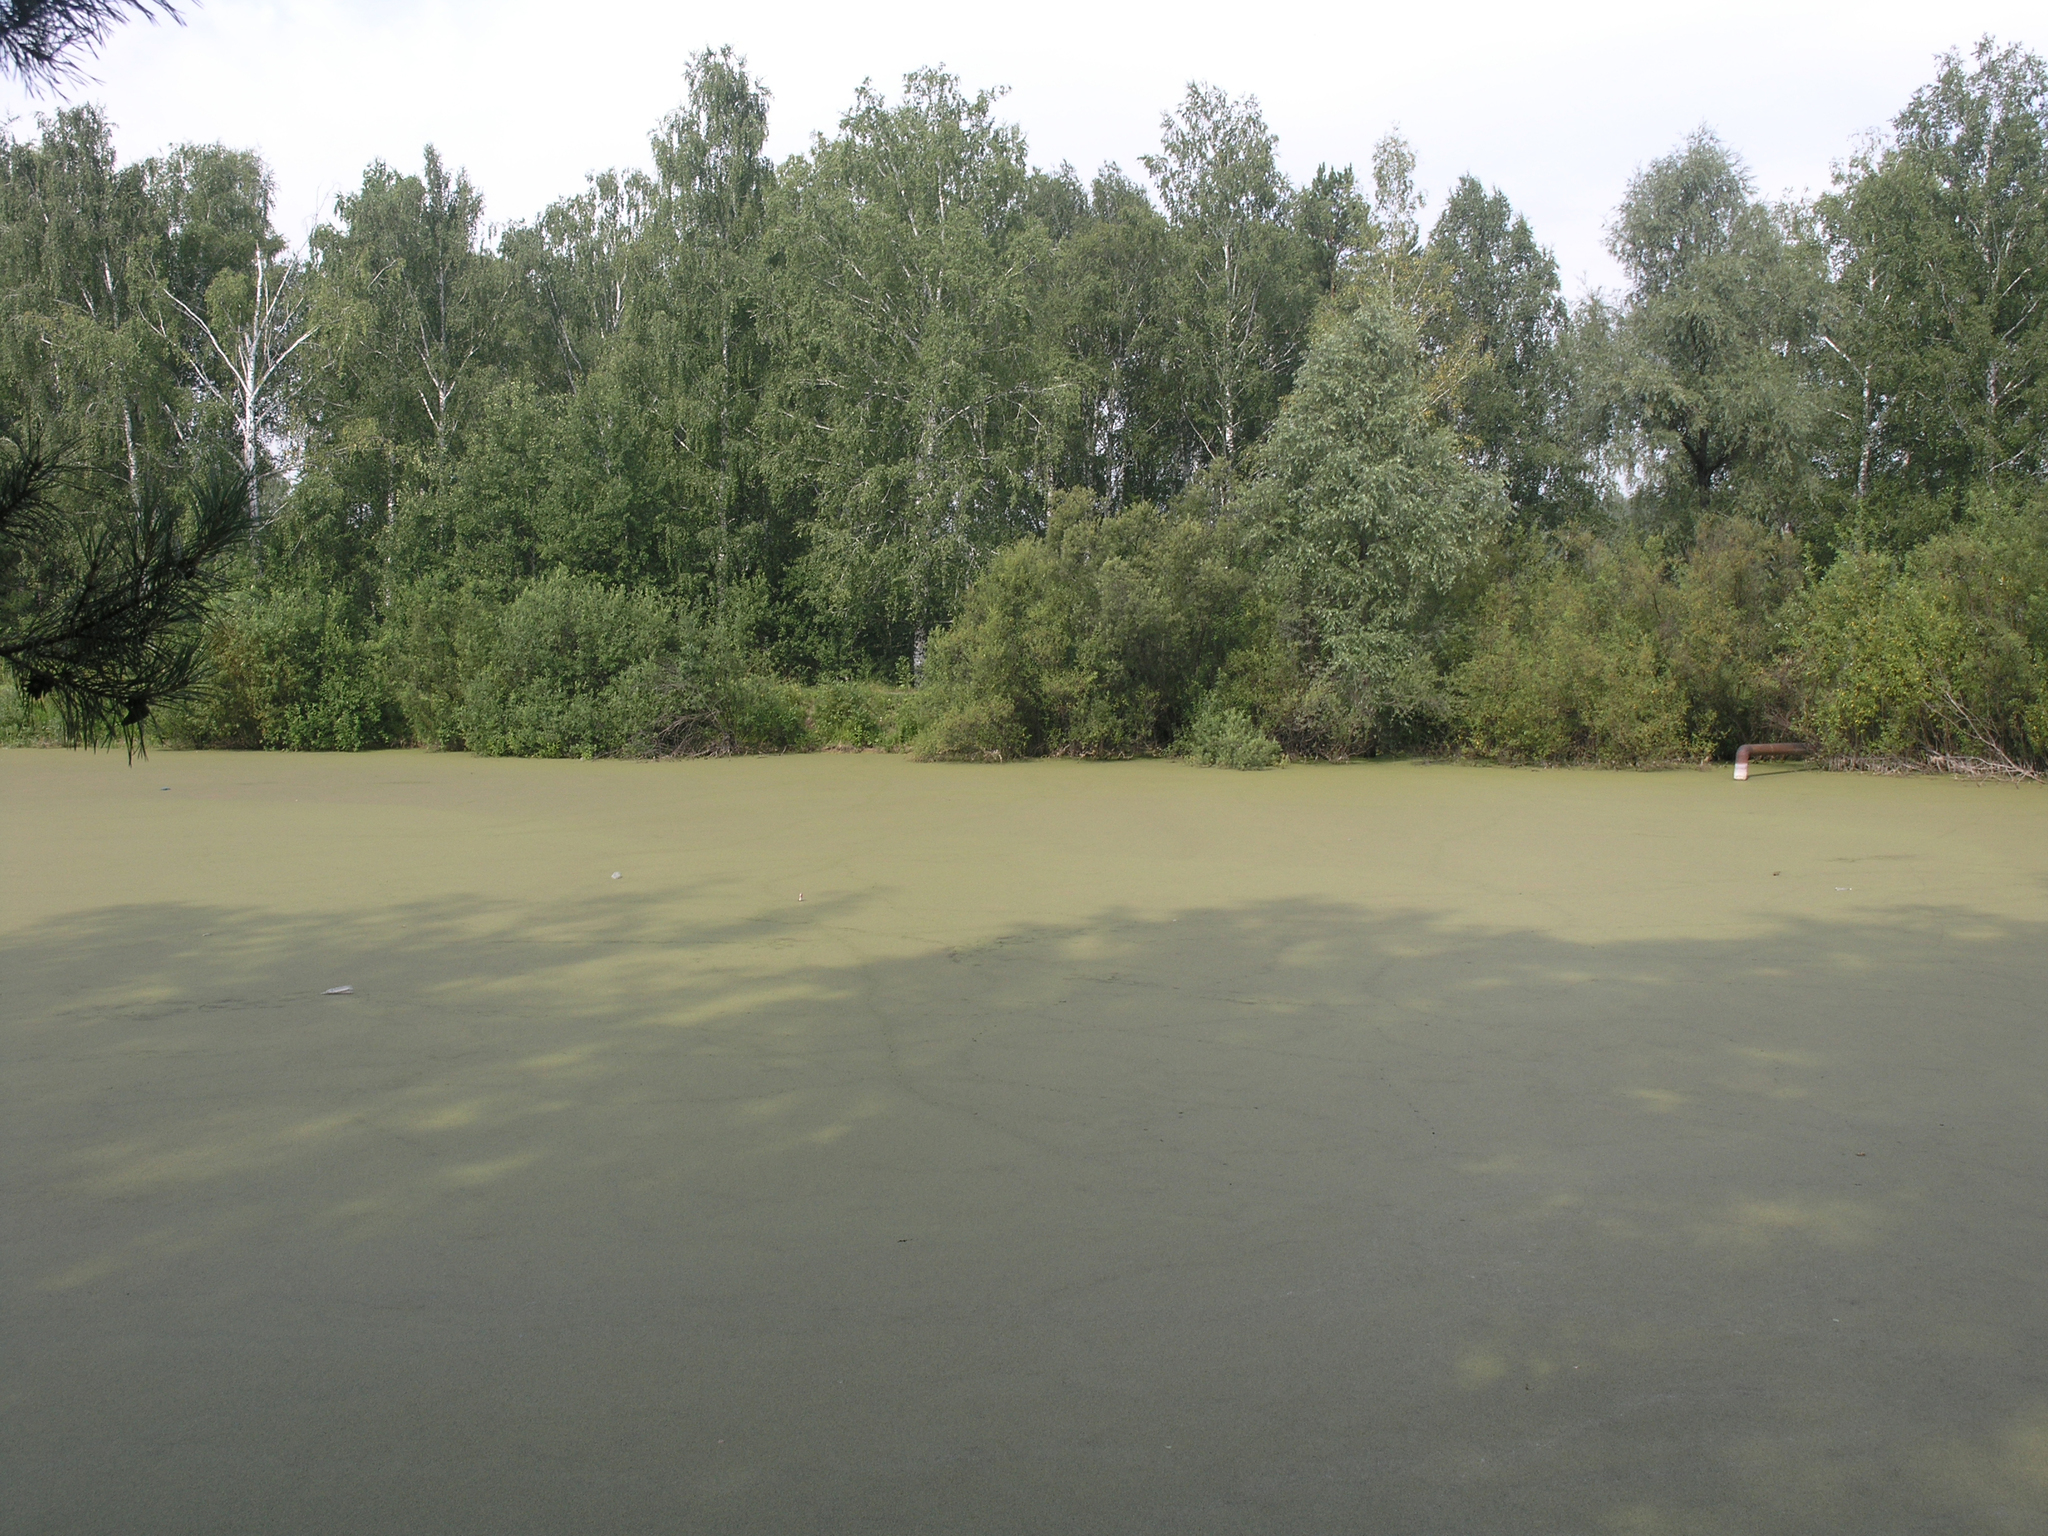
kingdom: Plantae
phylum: Tracheophyta
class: Liliopsida
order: Alismatales
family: Araceae
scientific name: Araceae
